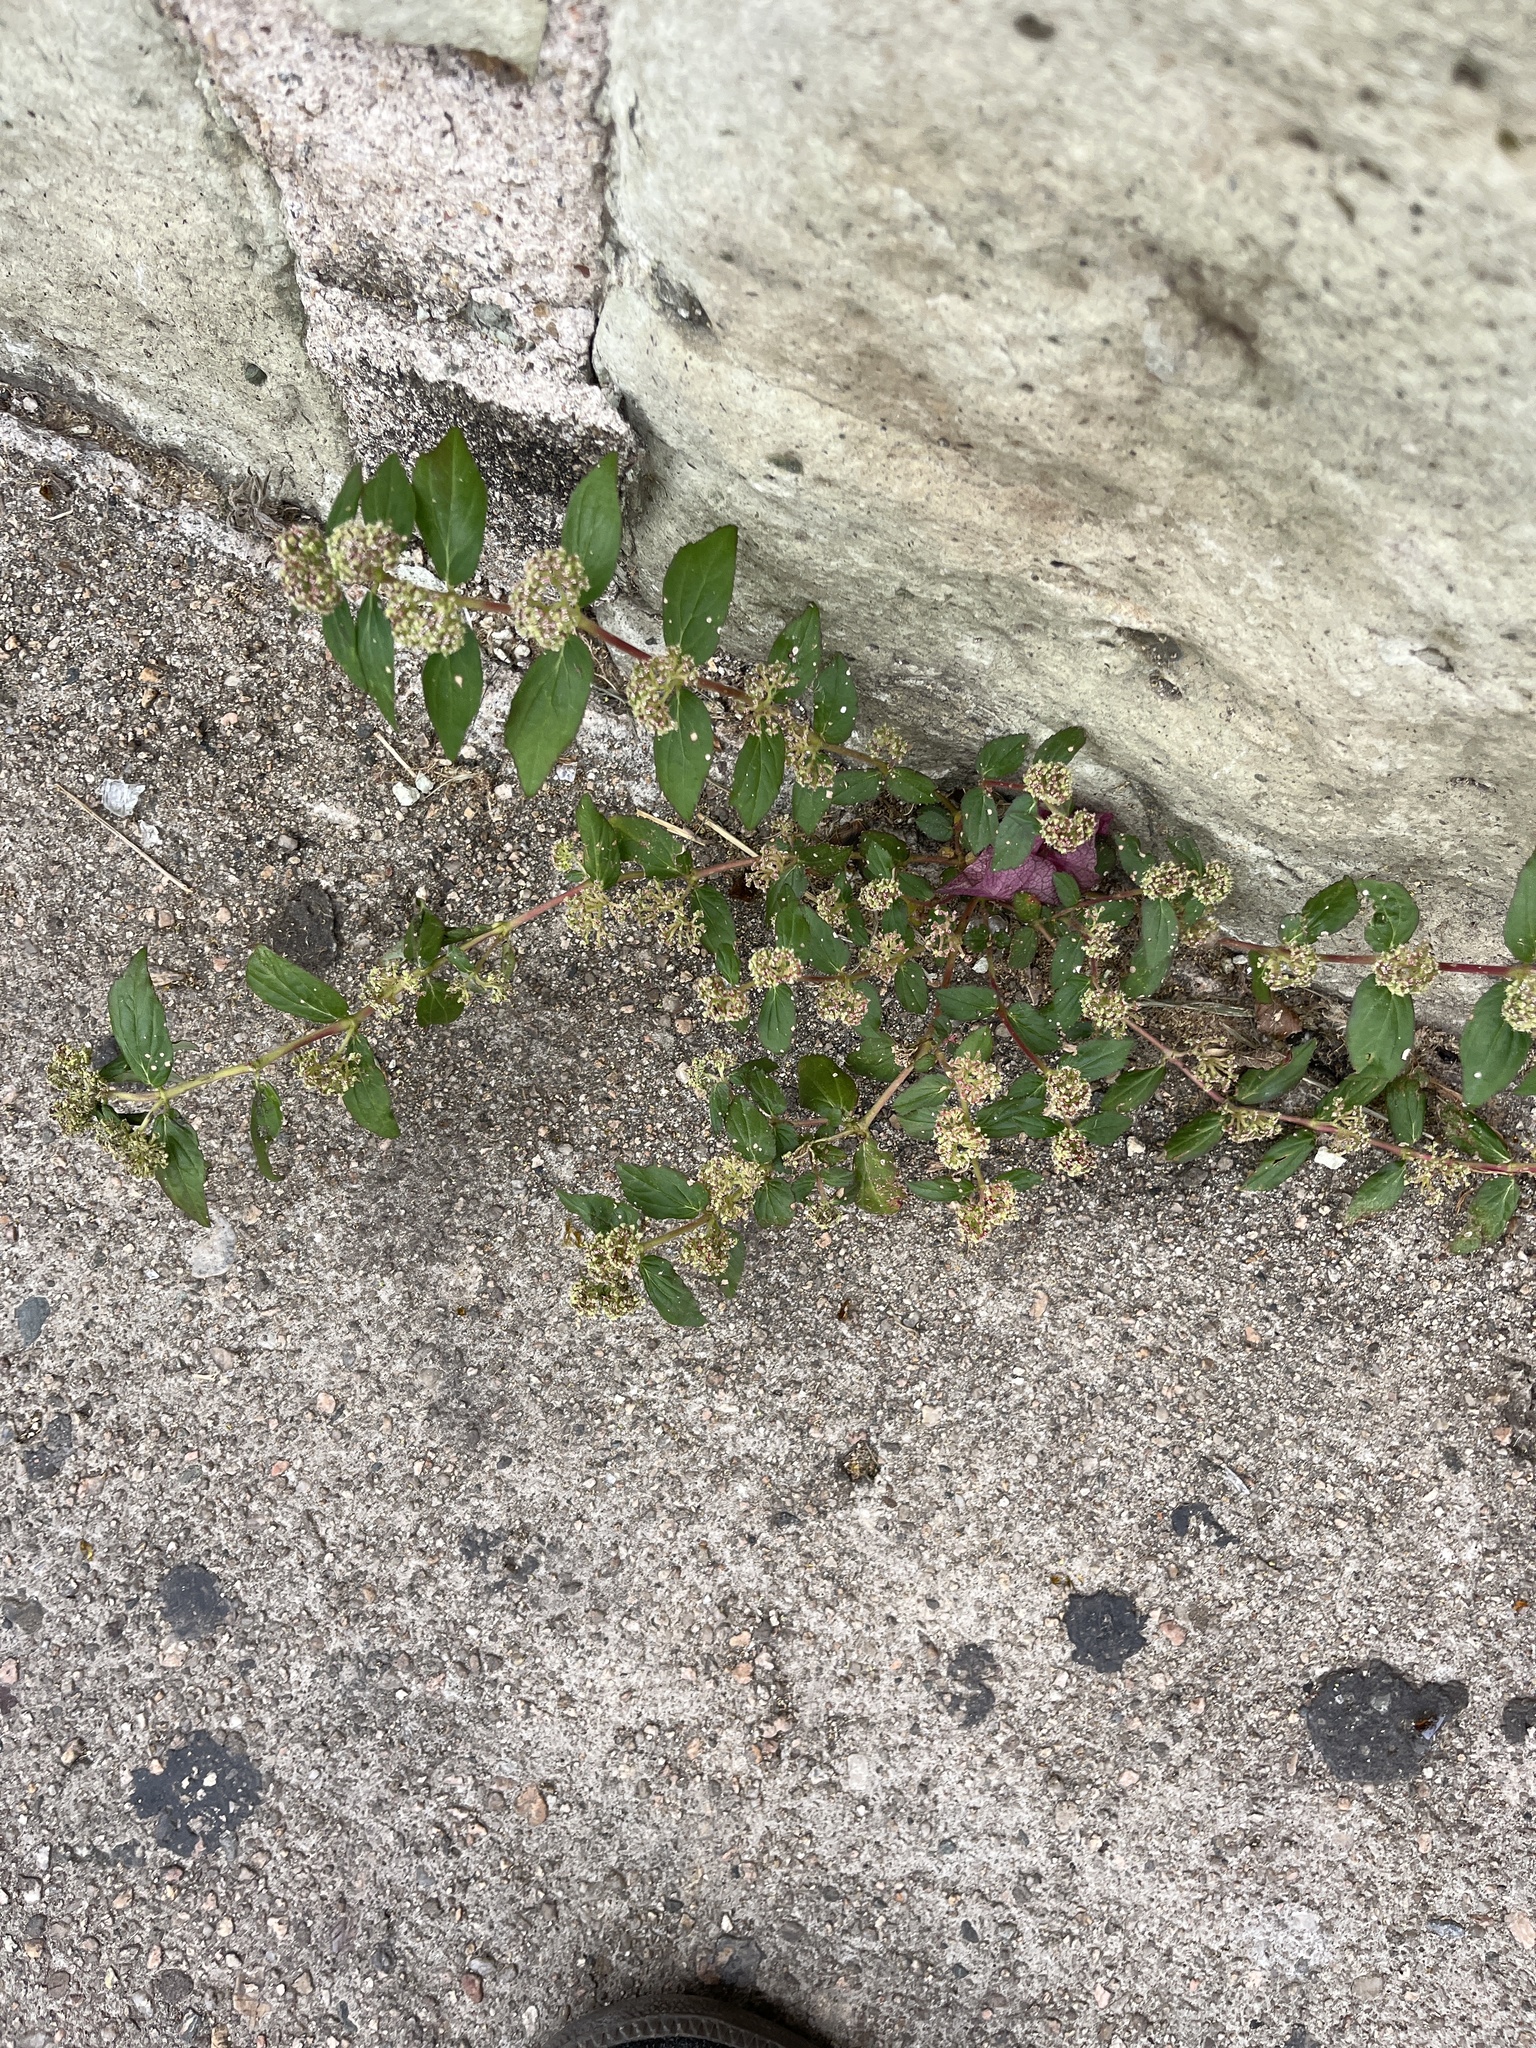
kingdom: Plantae
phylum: Tracheophyta
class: Magnoliopsida
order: Malpighiales
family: Euphorbiaceae
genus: Euphorbia
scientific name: Euphorbia hirta
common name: Pillpod sandmat
